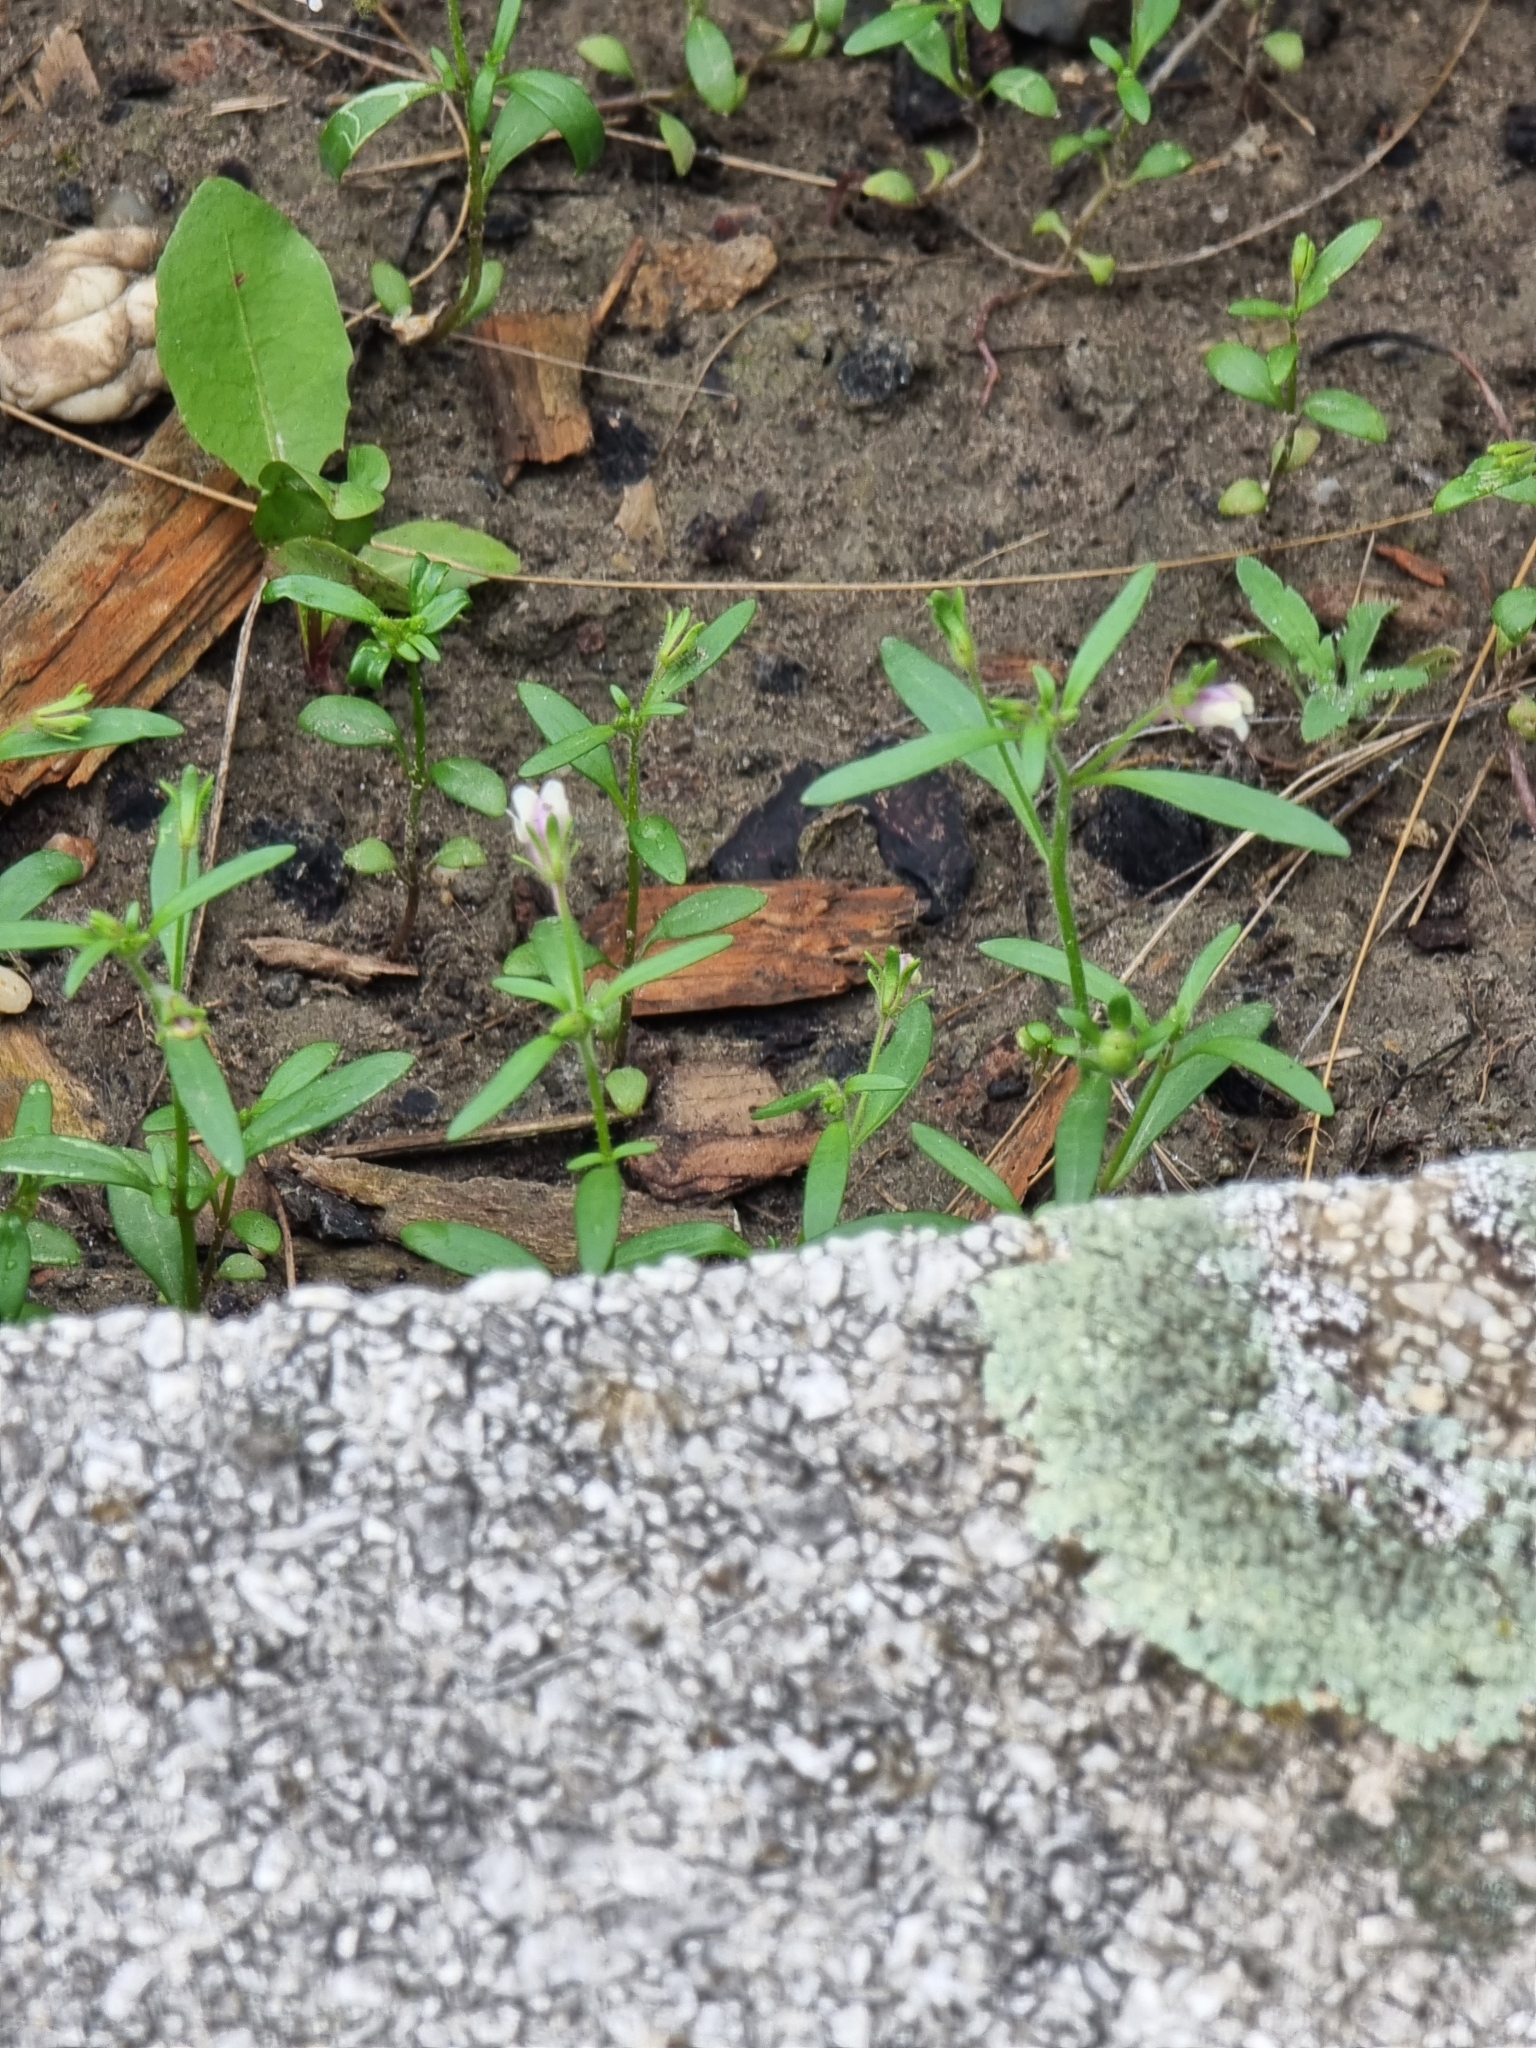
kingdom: Plantae
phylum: Tracheophyta
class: Magnoliopsida
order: Lamiales
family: Plantaginaceae
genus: Chaenorhinum
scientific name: Chaenorhinum minus
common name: Dwarf snapdragon
